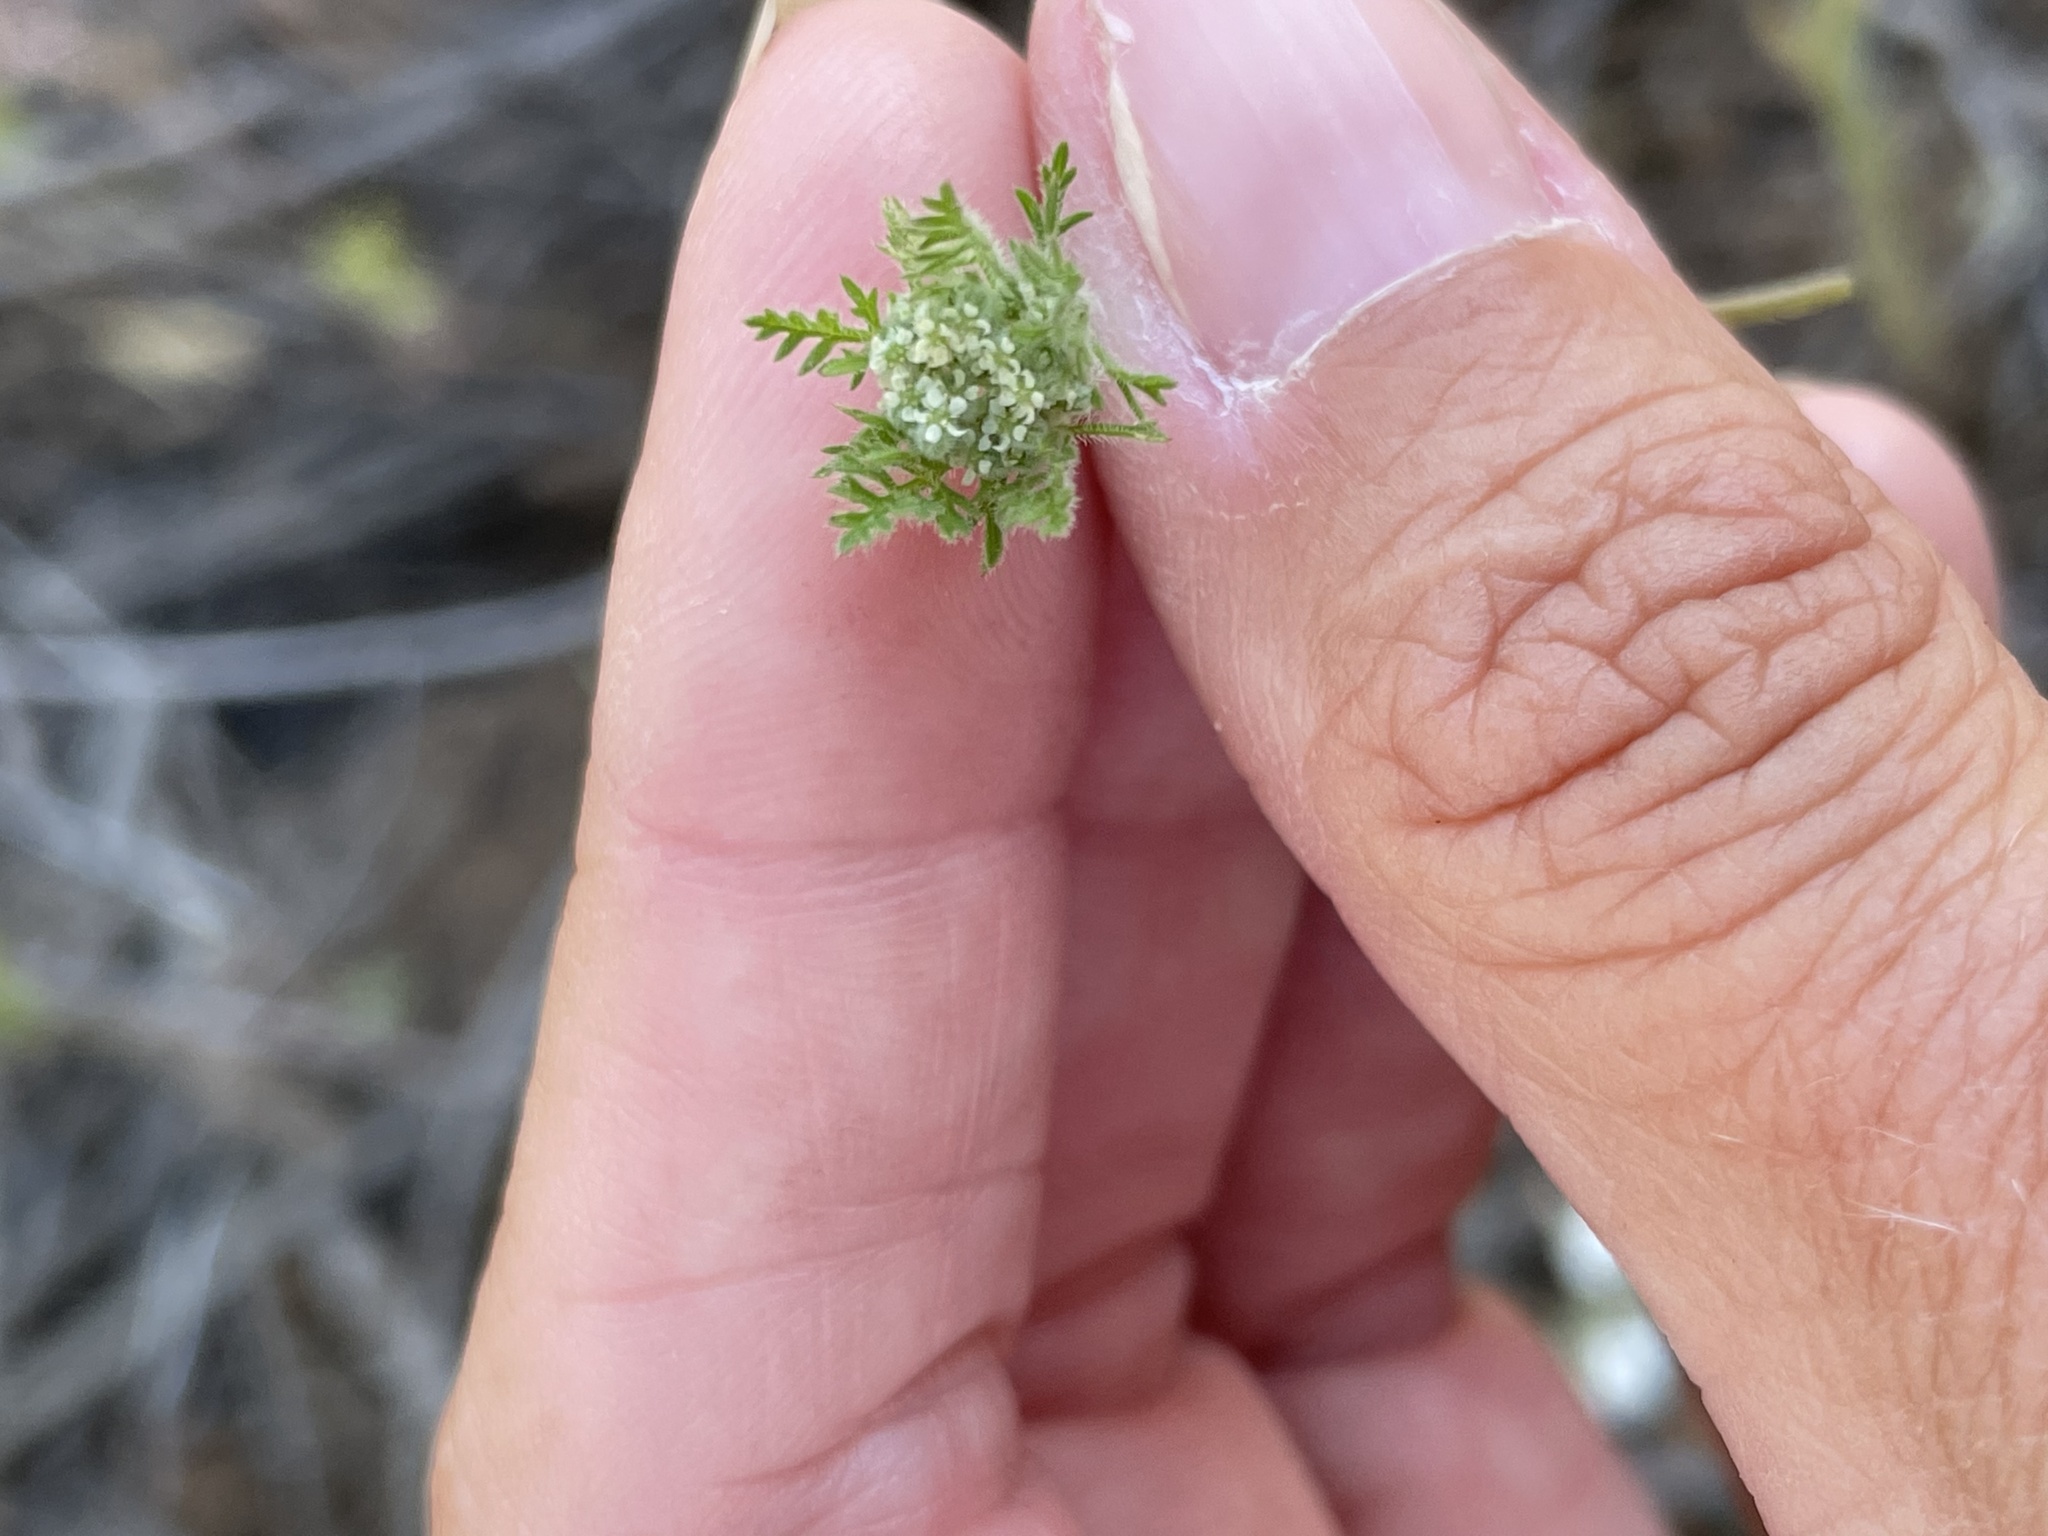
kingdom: Plantae
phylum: Tracheophyta
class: Magnoliopsida
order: Apiales
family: Apiaceae
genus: Daucus
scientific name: Daucus pusillus
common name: Southwest wild carrot
